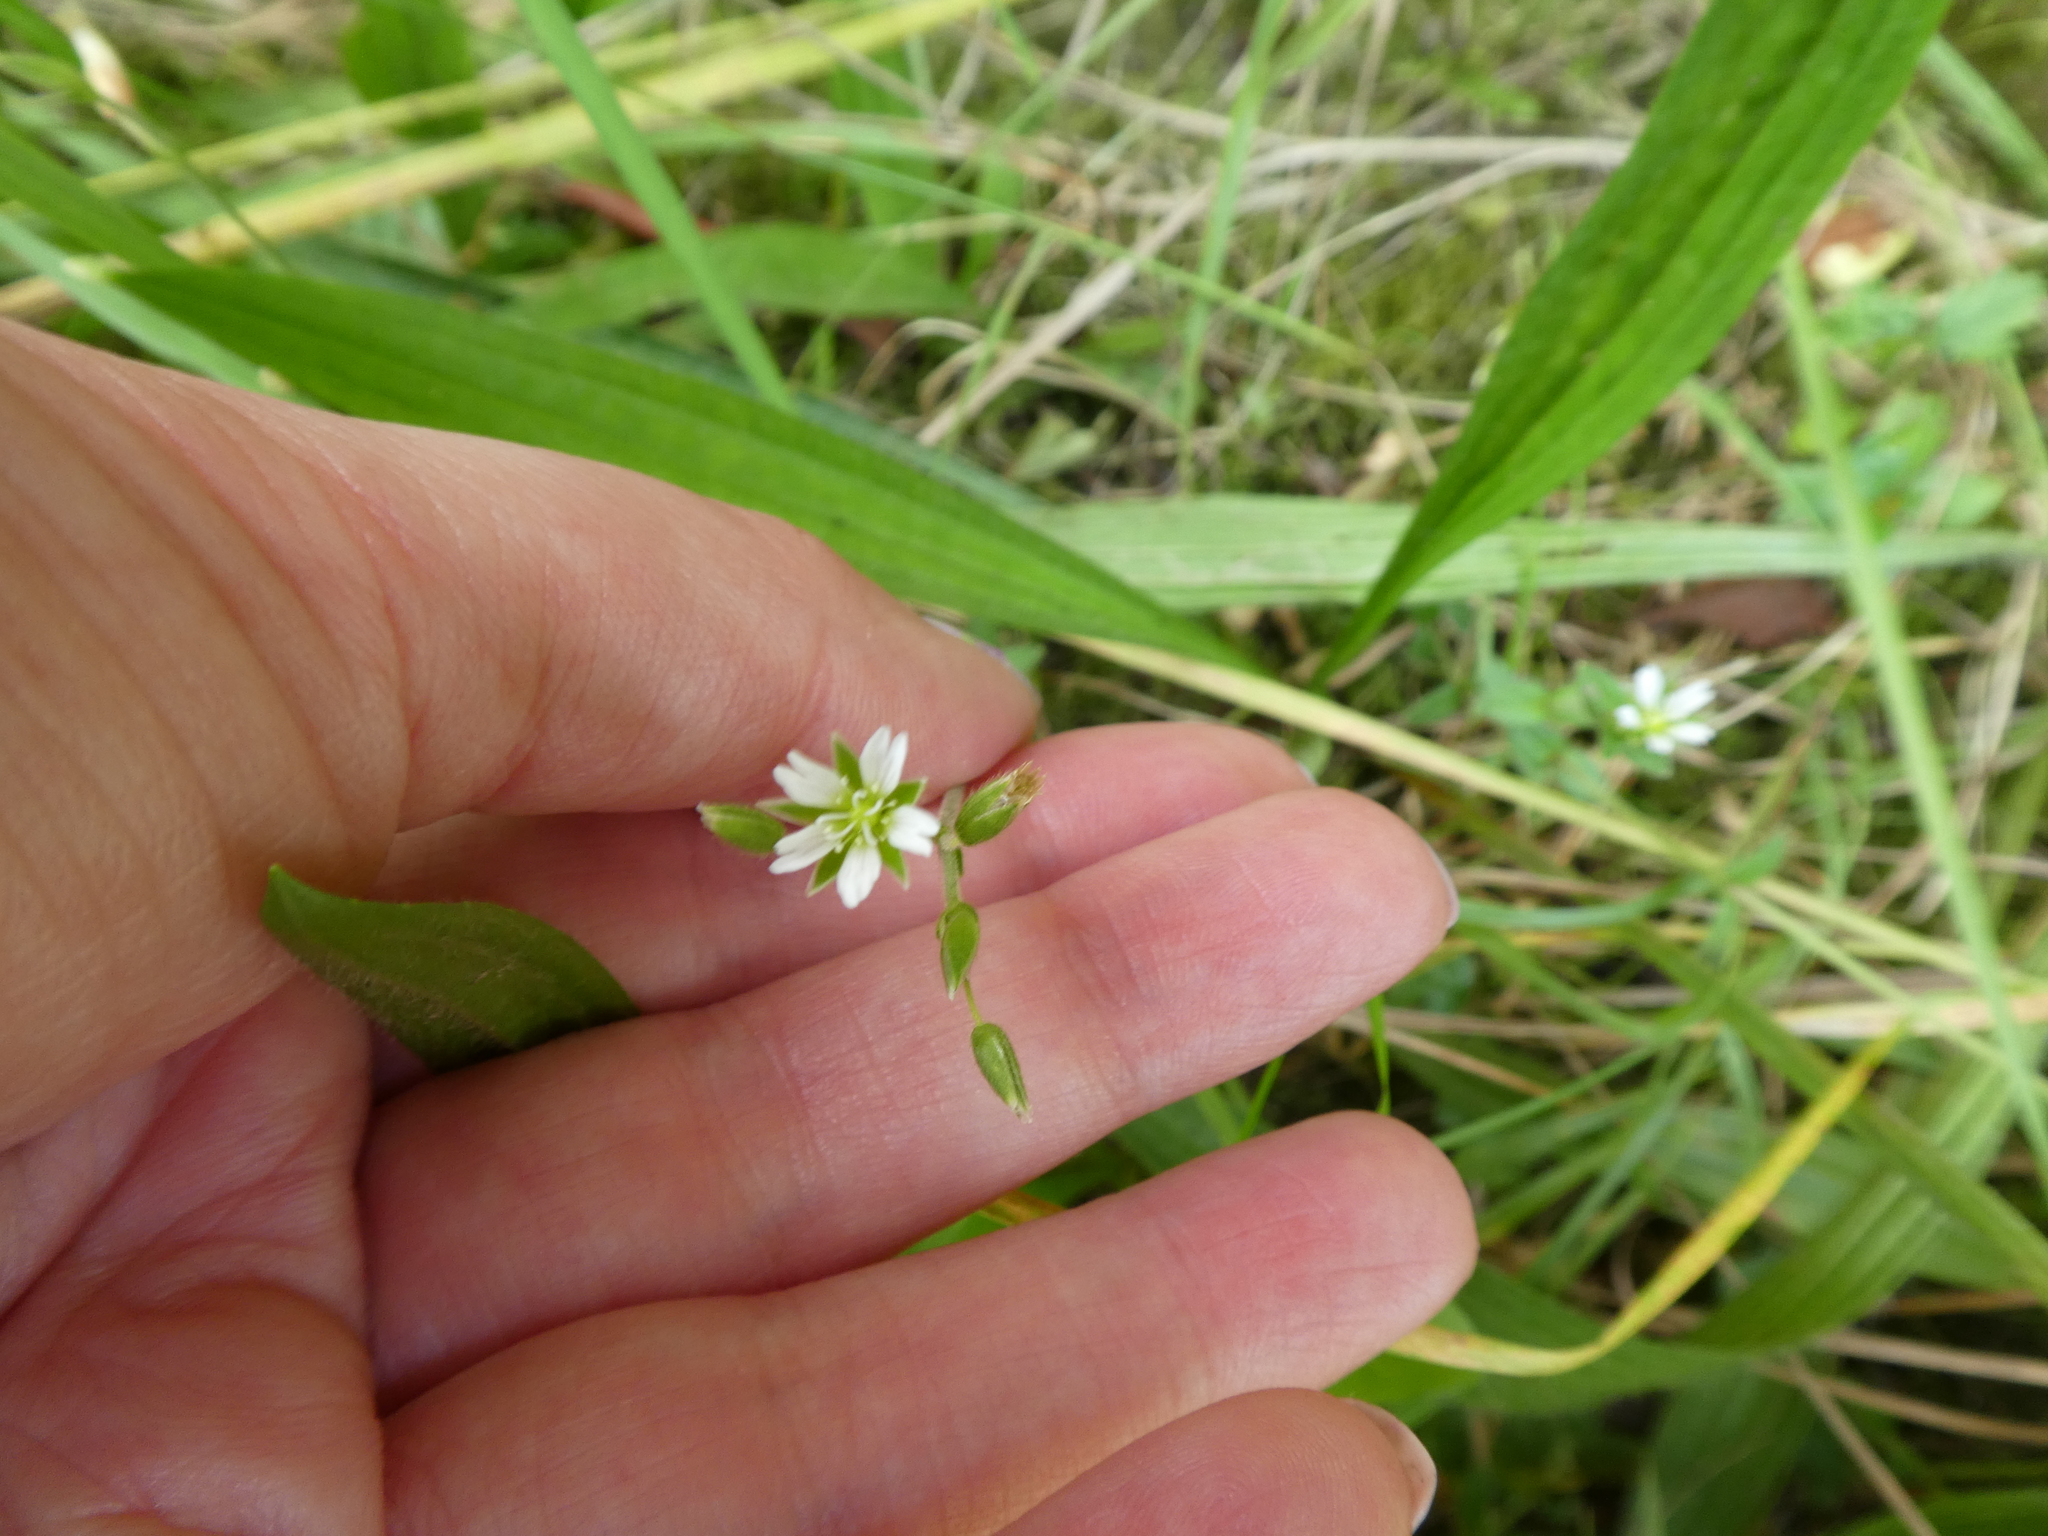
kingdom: Plantae
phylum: Tracheophyta
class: Magnoliopsida
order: Caryophyllales
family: Caryophyllaceae
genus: Cerastium
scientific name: Cerastium fontanum
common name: Common mouse-ear
